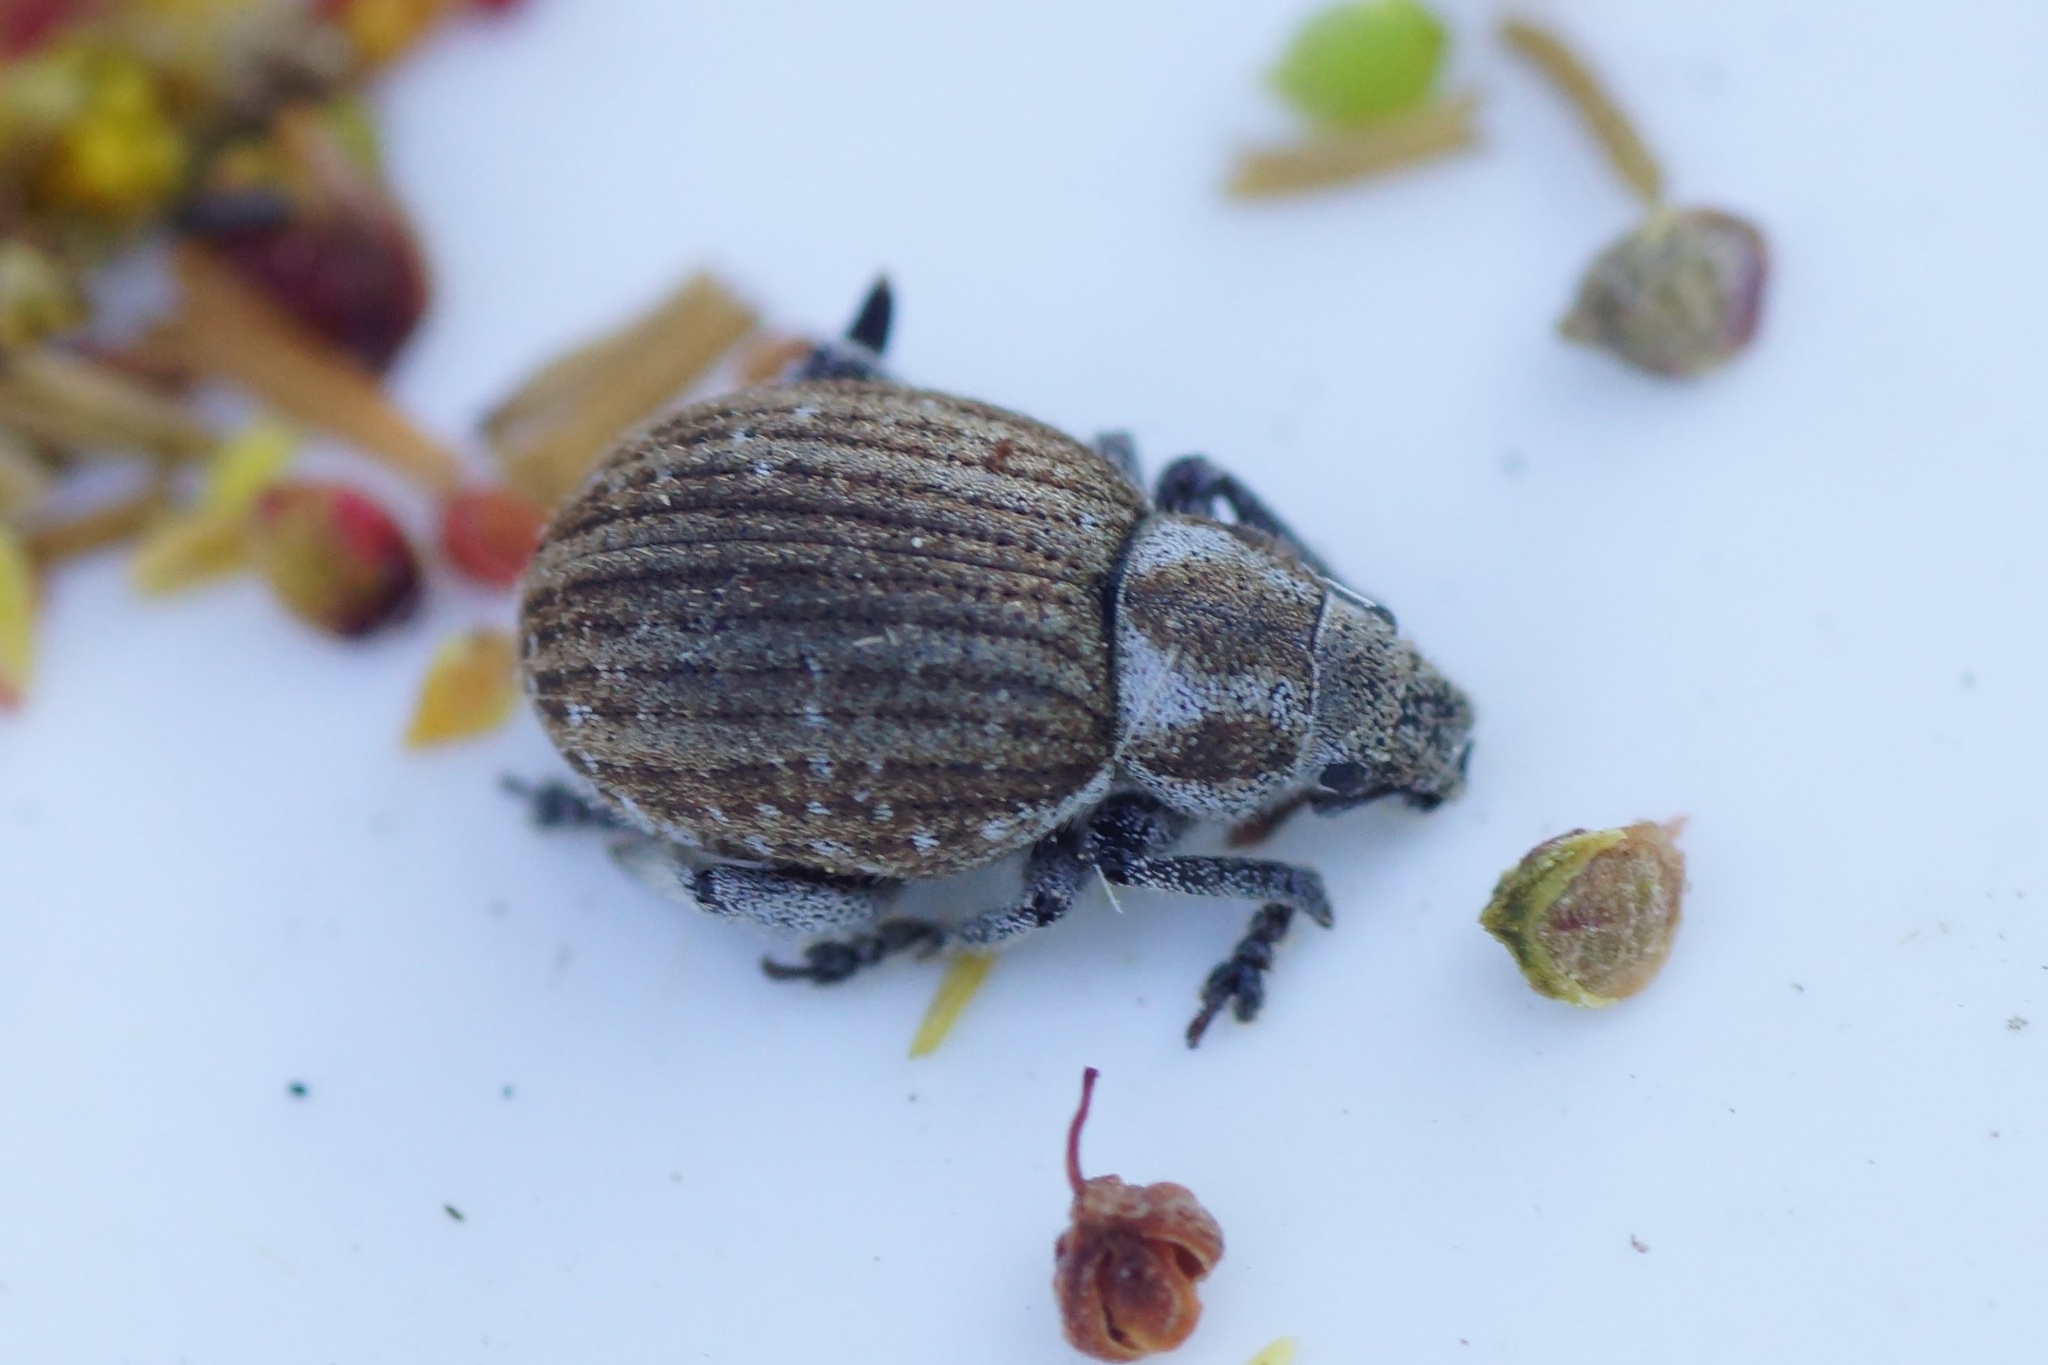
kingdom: Animalia
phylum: Arthropoda
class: Insecta
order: Coleoptera
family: Curculionidae
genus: Philopedon
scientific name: Philopedon plagiatum
